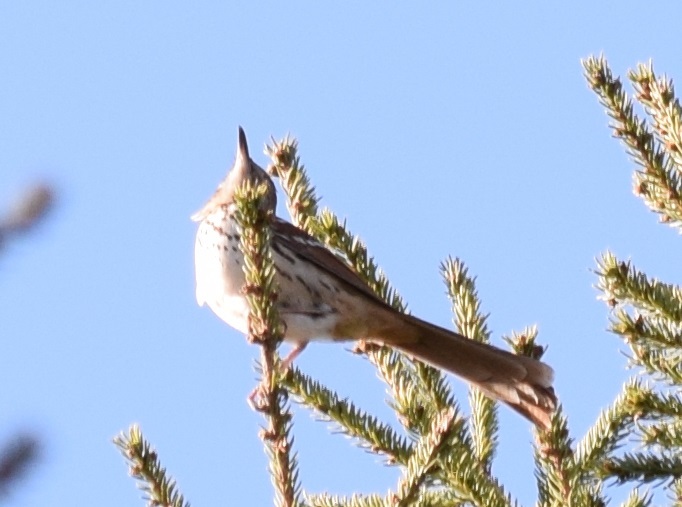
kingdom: Animalia
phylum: Chordata
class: Aves
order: Passeriformes
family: Mimidae
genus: Toxostoma
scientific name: Toxostoma rufum
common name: Brown thrasher
